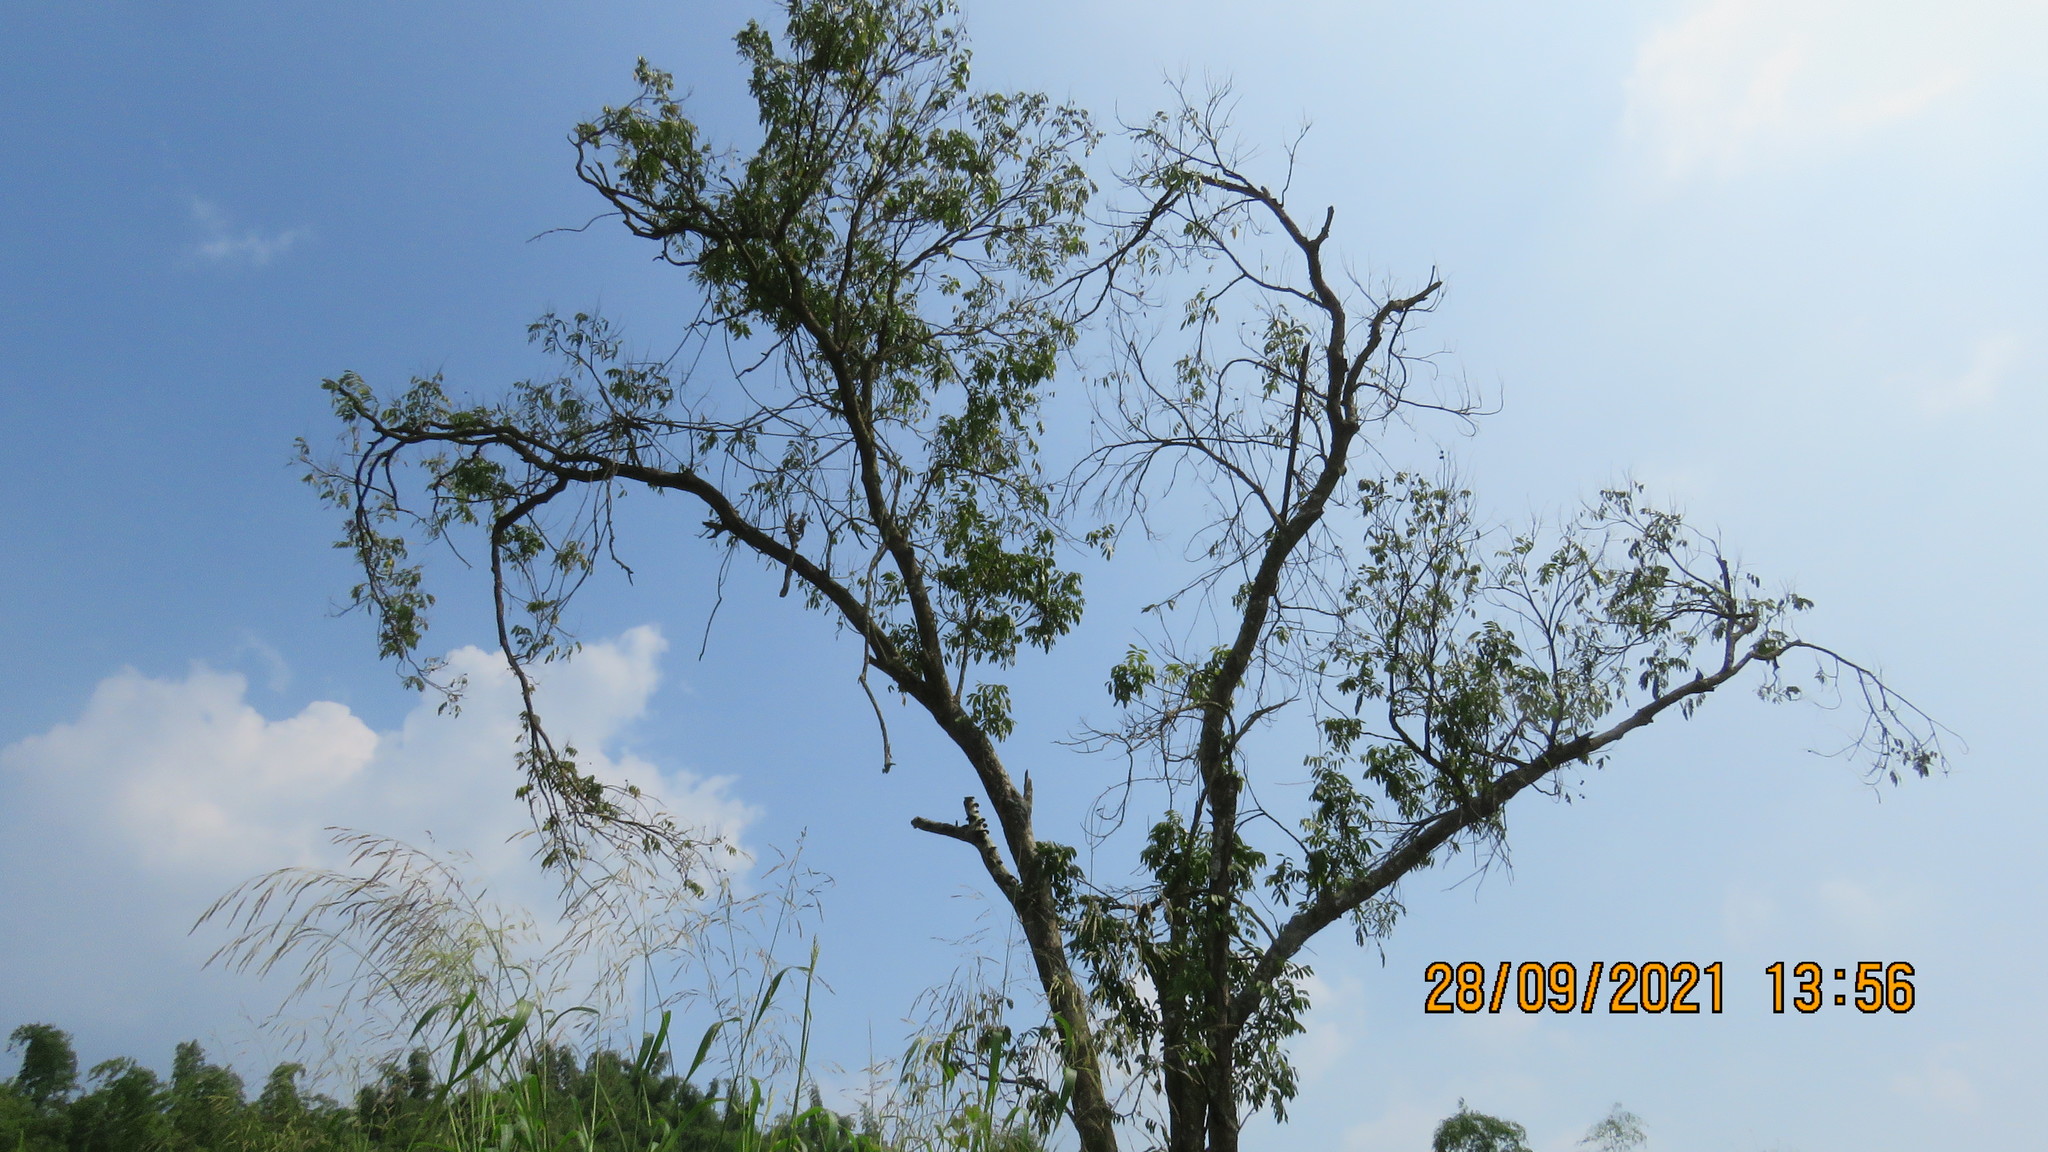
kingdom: Plantae
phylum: Tracheophyta
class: Magnoliopsida
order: Sapindales
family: Sapindaceae
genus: Dimocarpus
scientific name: Dimocarpus longan
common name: Longan
